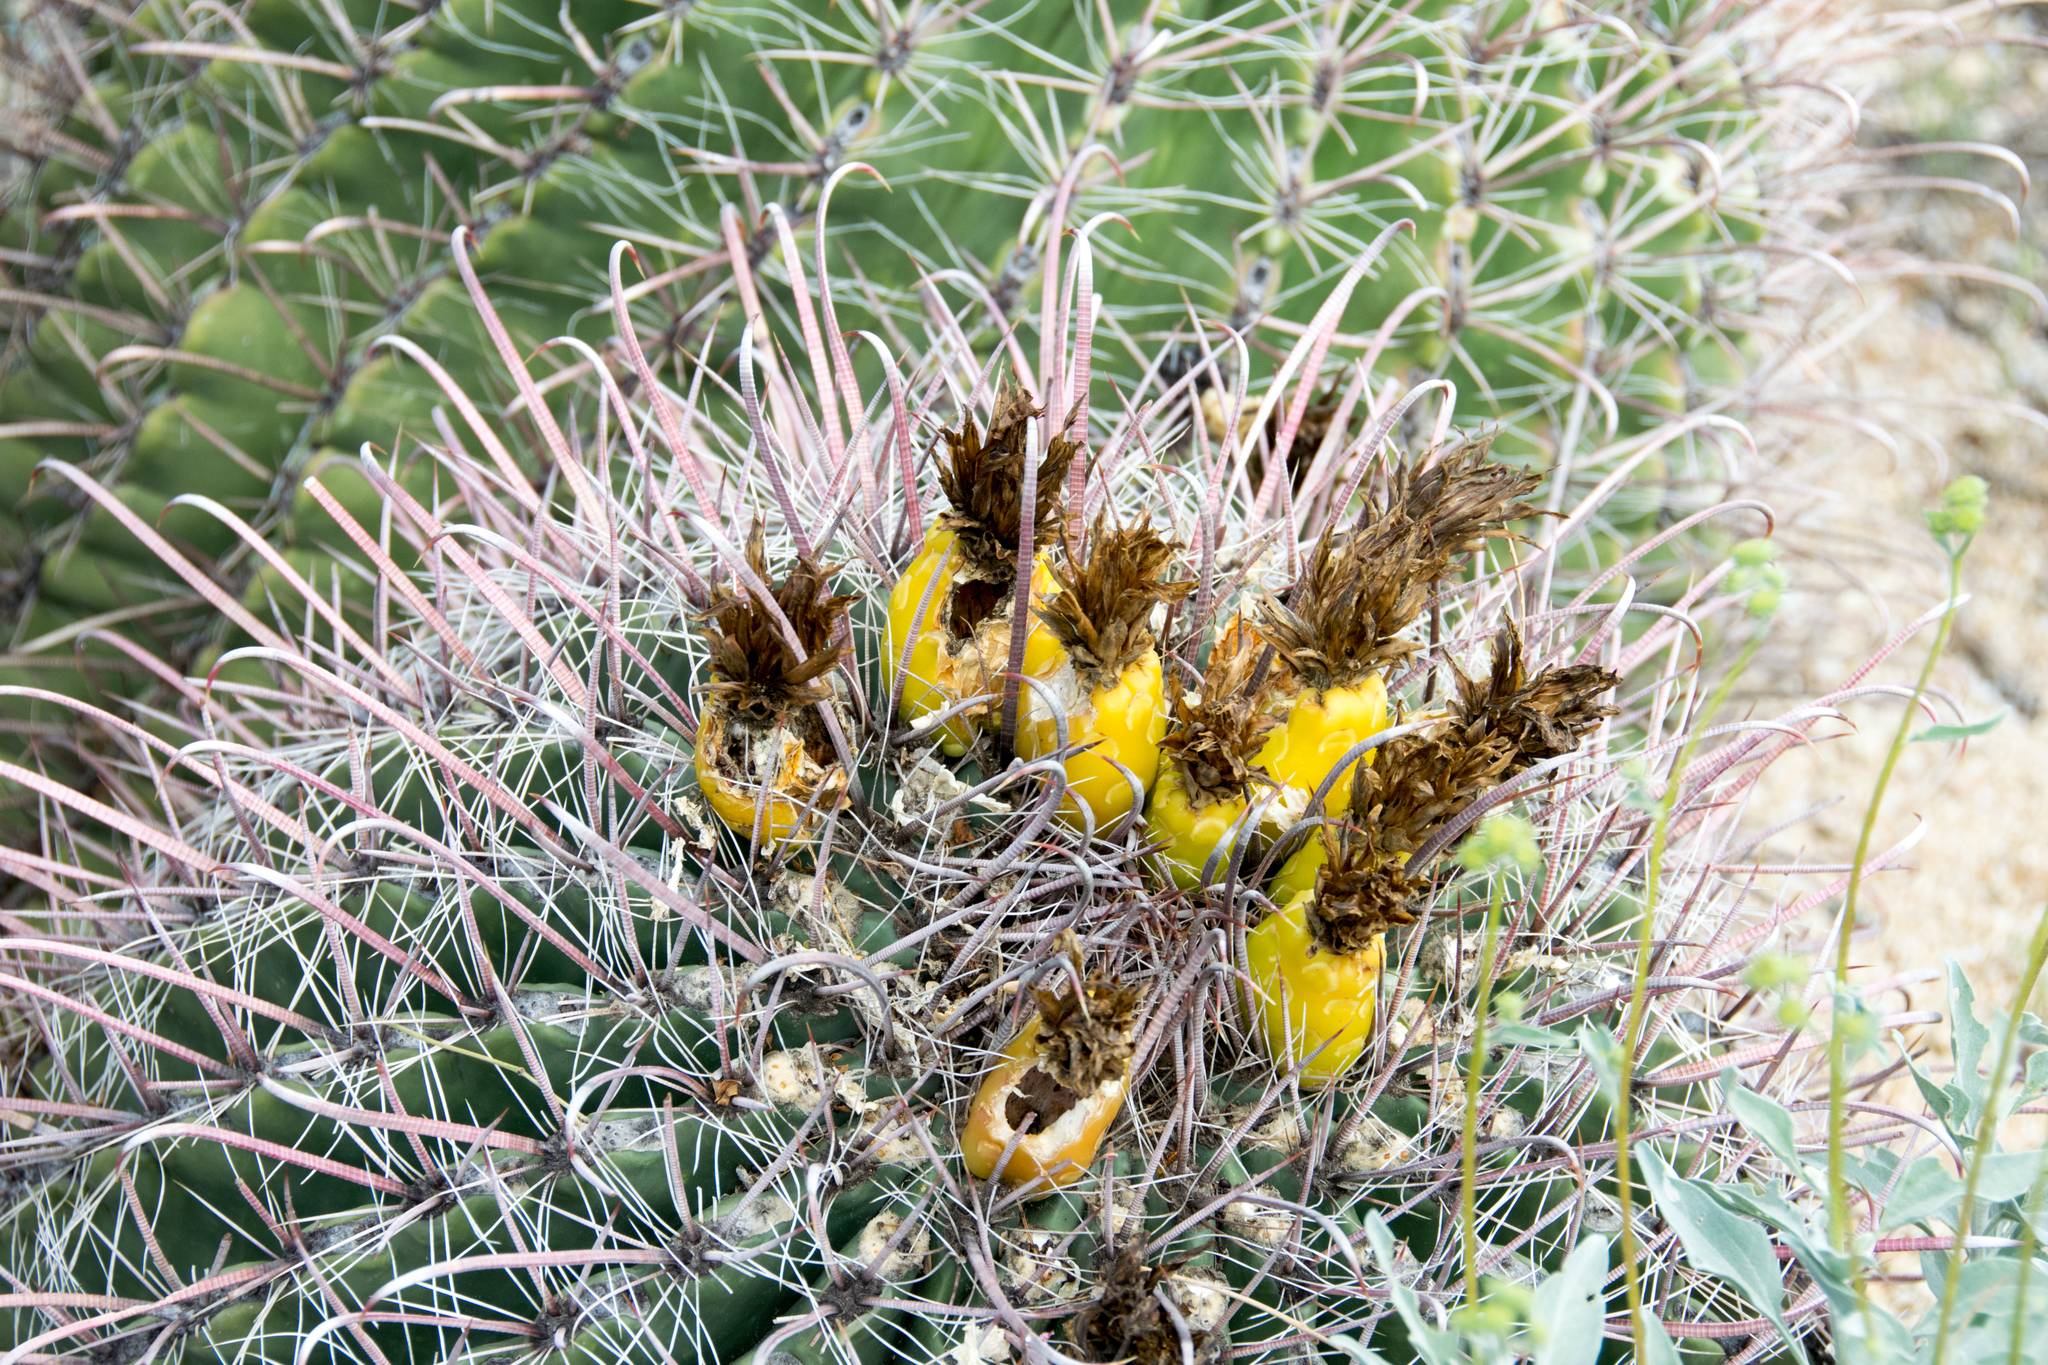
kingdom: Plantae
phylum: Tracheophyta
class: Magnoliopsida
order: Caryophyllales
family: Cactaceae
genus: Ferocactus
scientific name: Ferocactus wislizeni
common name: Candy barrel cactus
